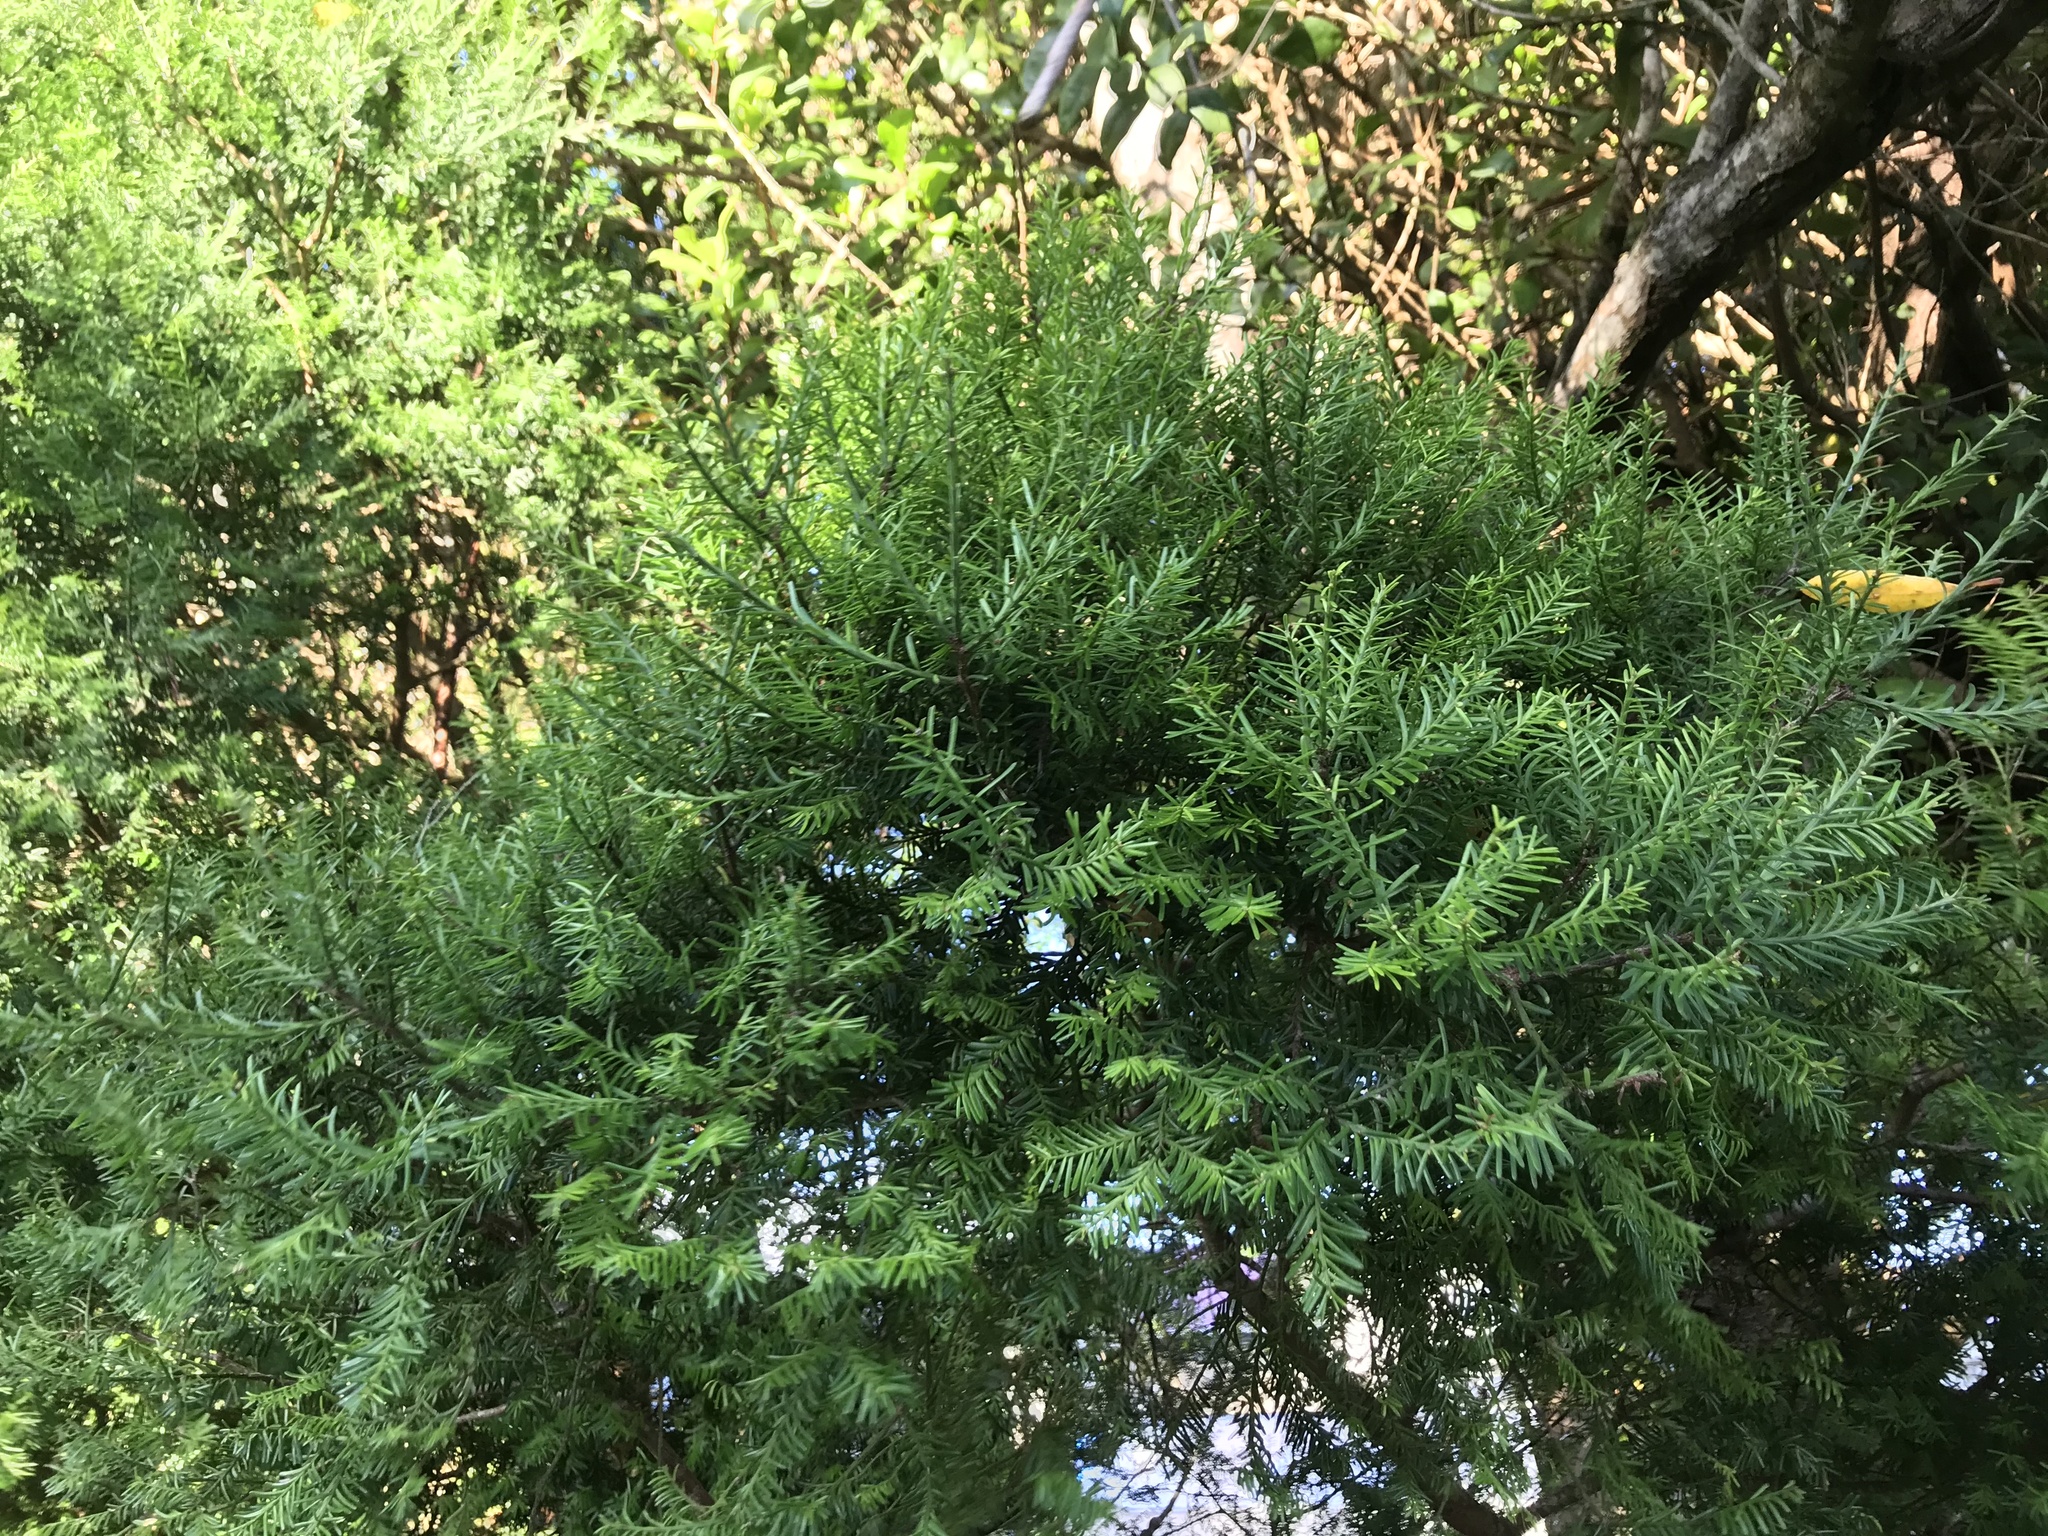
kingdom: Plantae
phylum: Tracheophyta
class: Pinopsida
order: Pinales
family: Podocarpaceae
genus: Prumnopitys
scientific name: Prumnopitys taxifolia
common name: Matai
